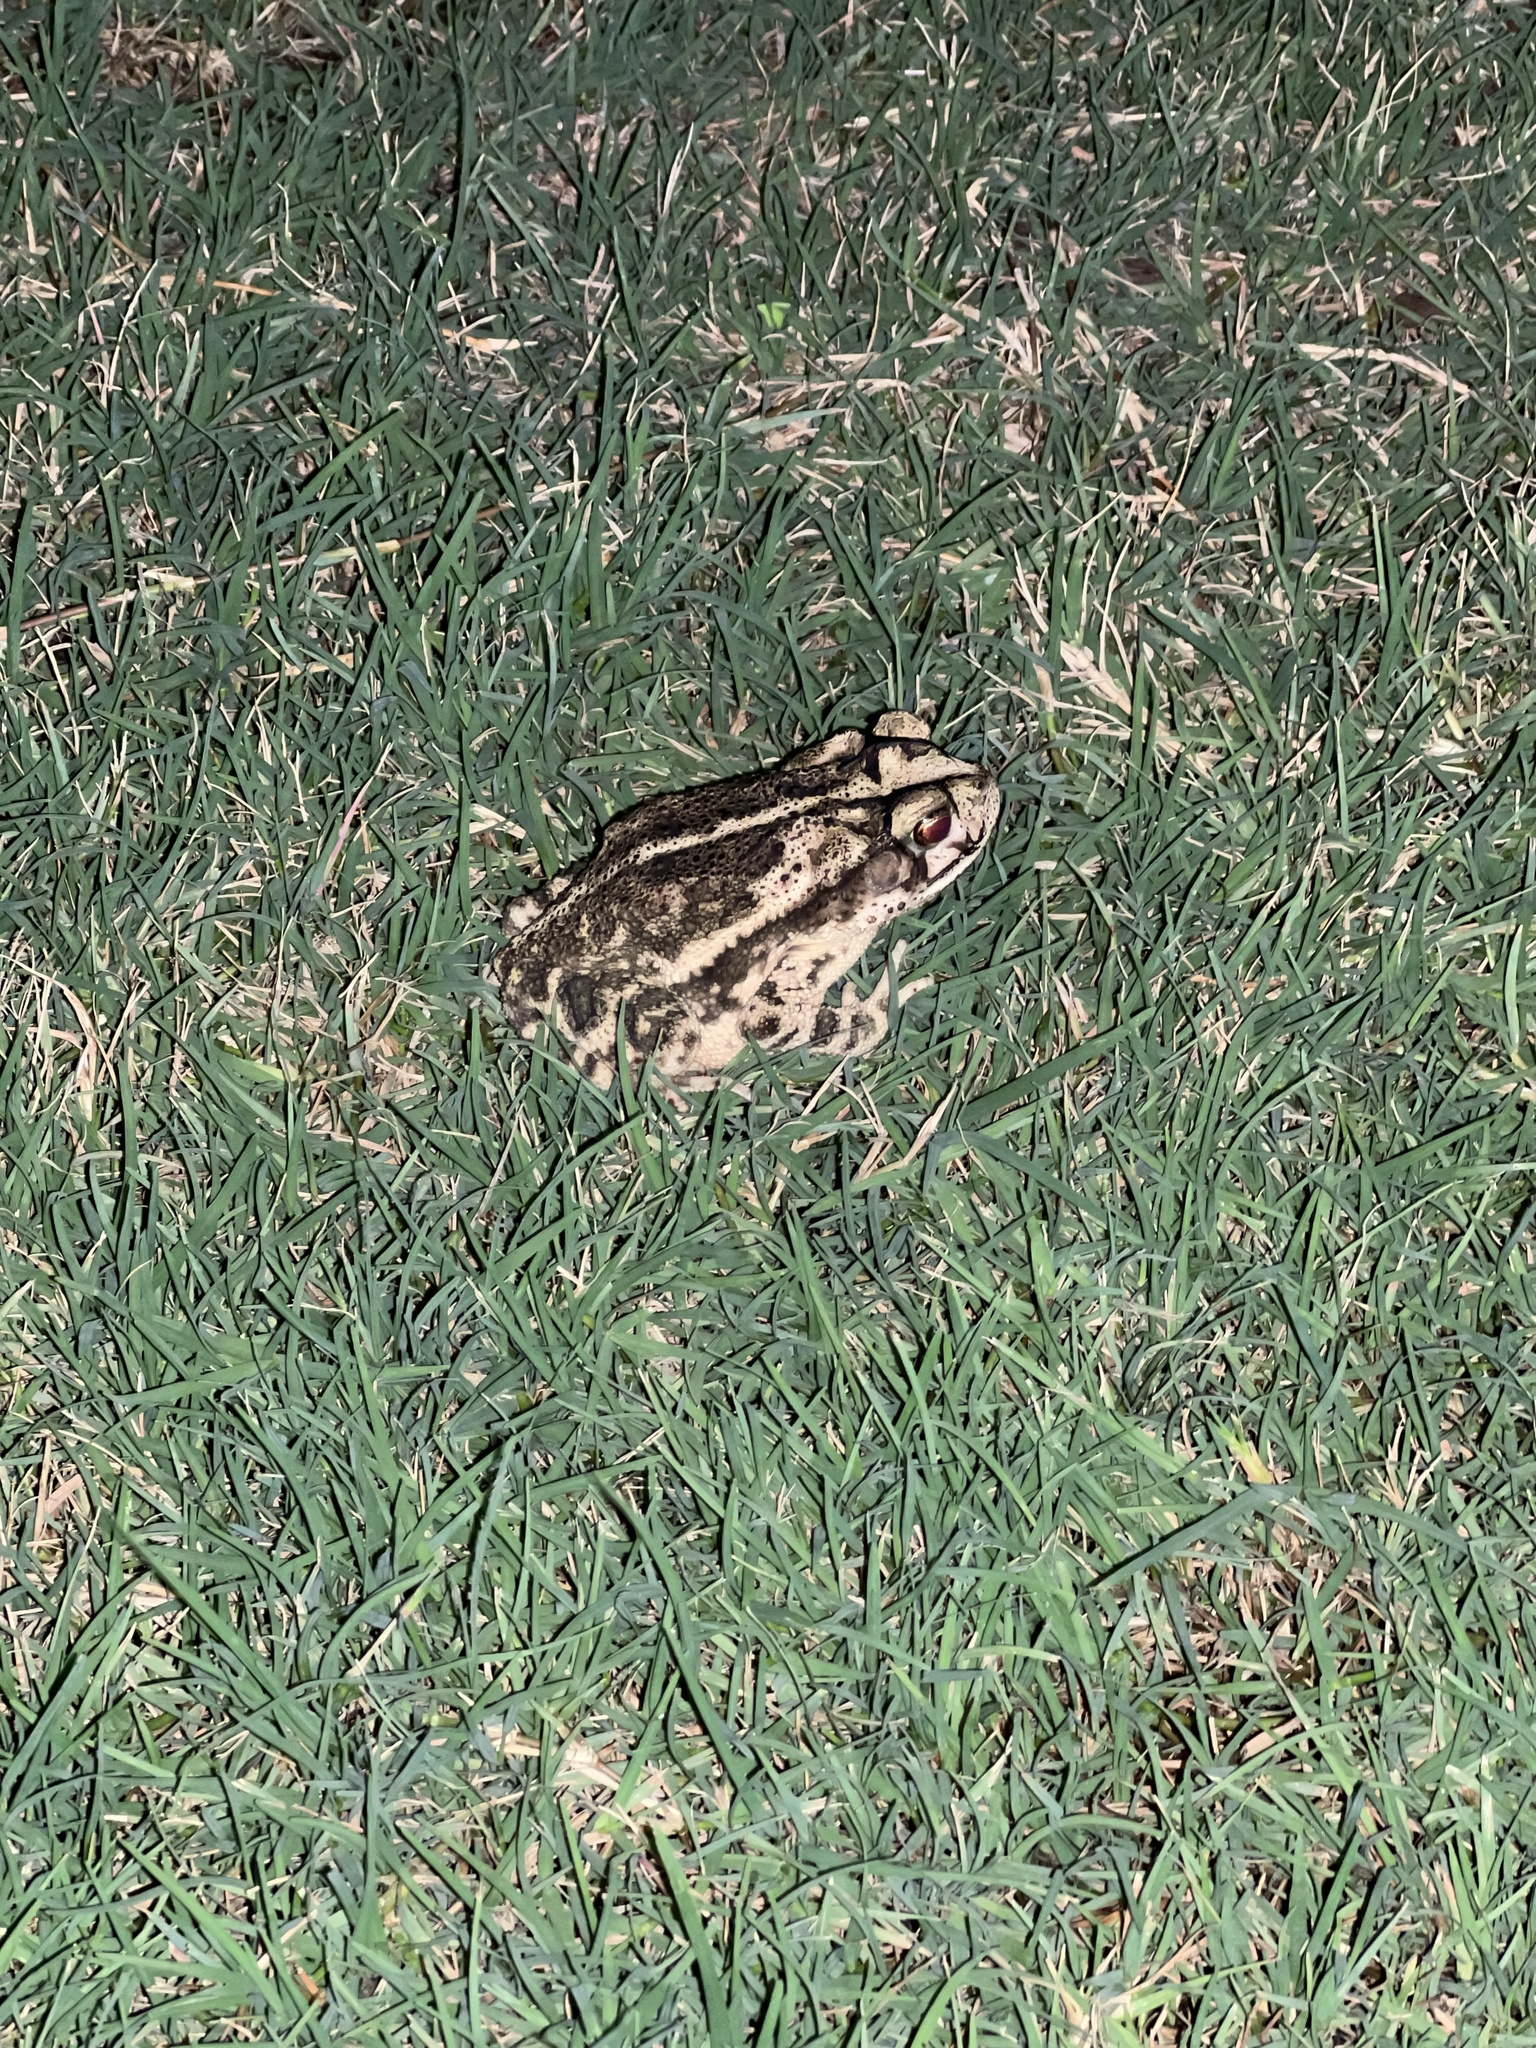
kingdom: Animalia
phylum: Chordata
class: Amphibia
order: Anura
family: Bufonidae
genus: Incilius
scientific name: Incilius nebulifer
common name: Gulf coast toad
